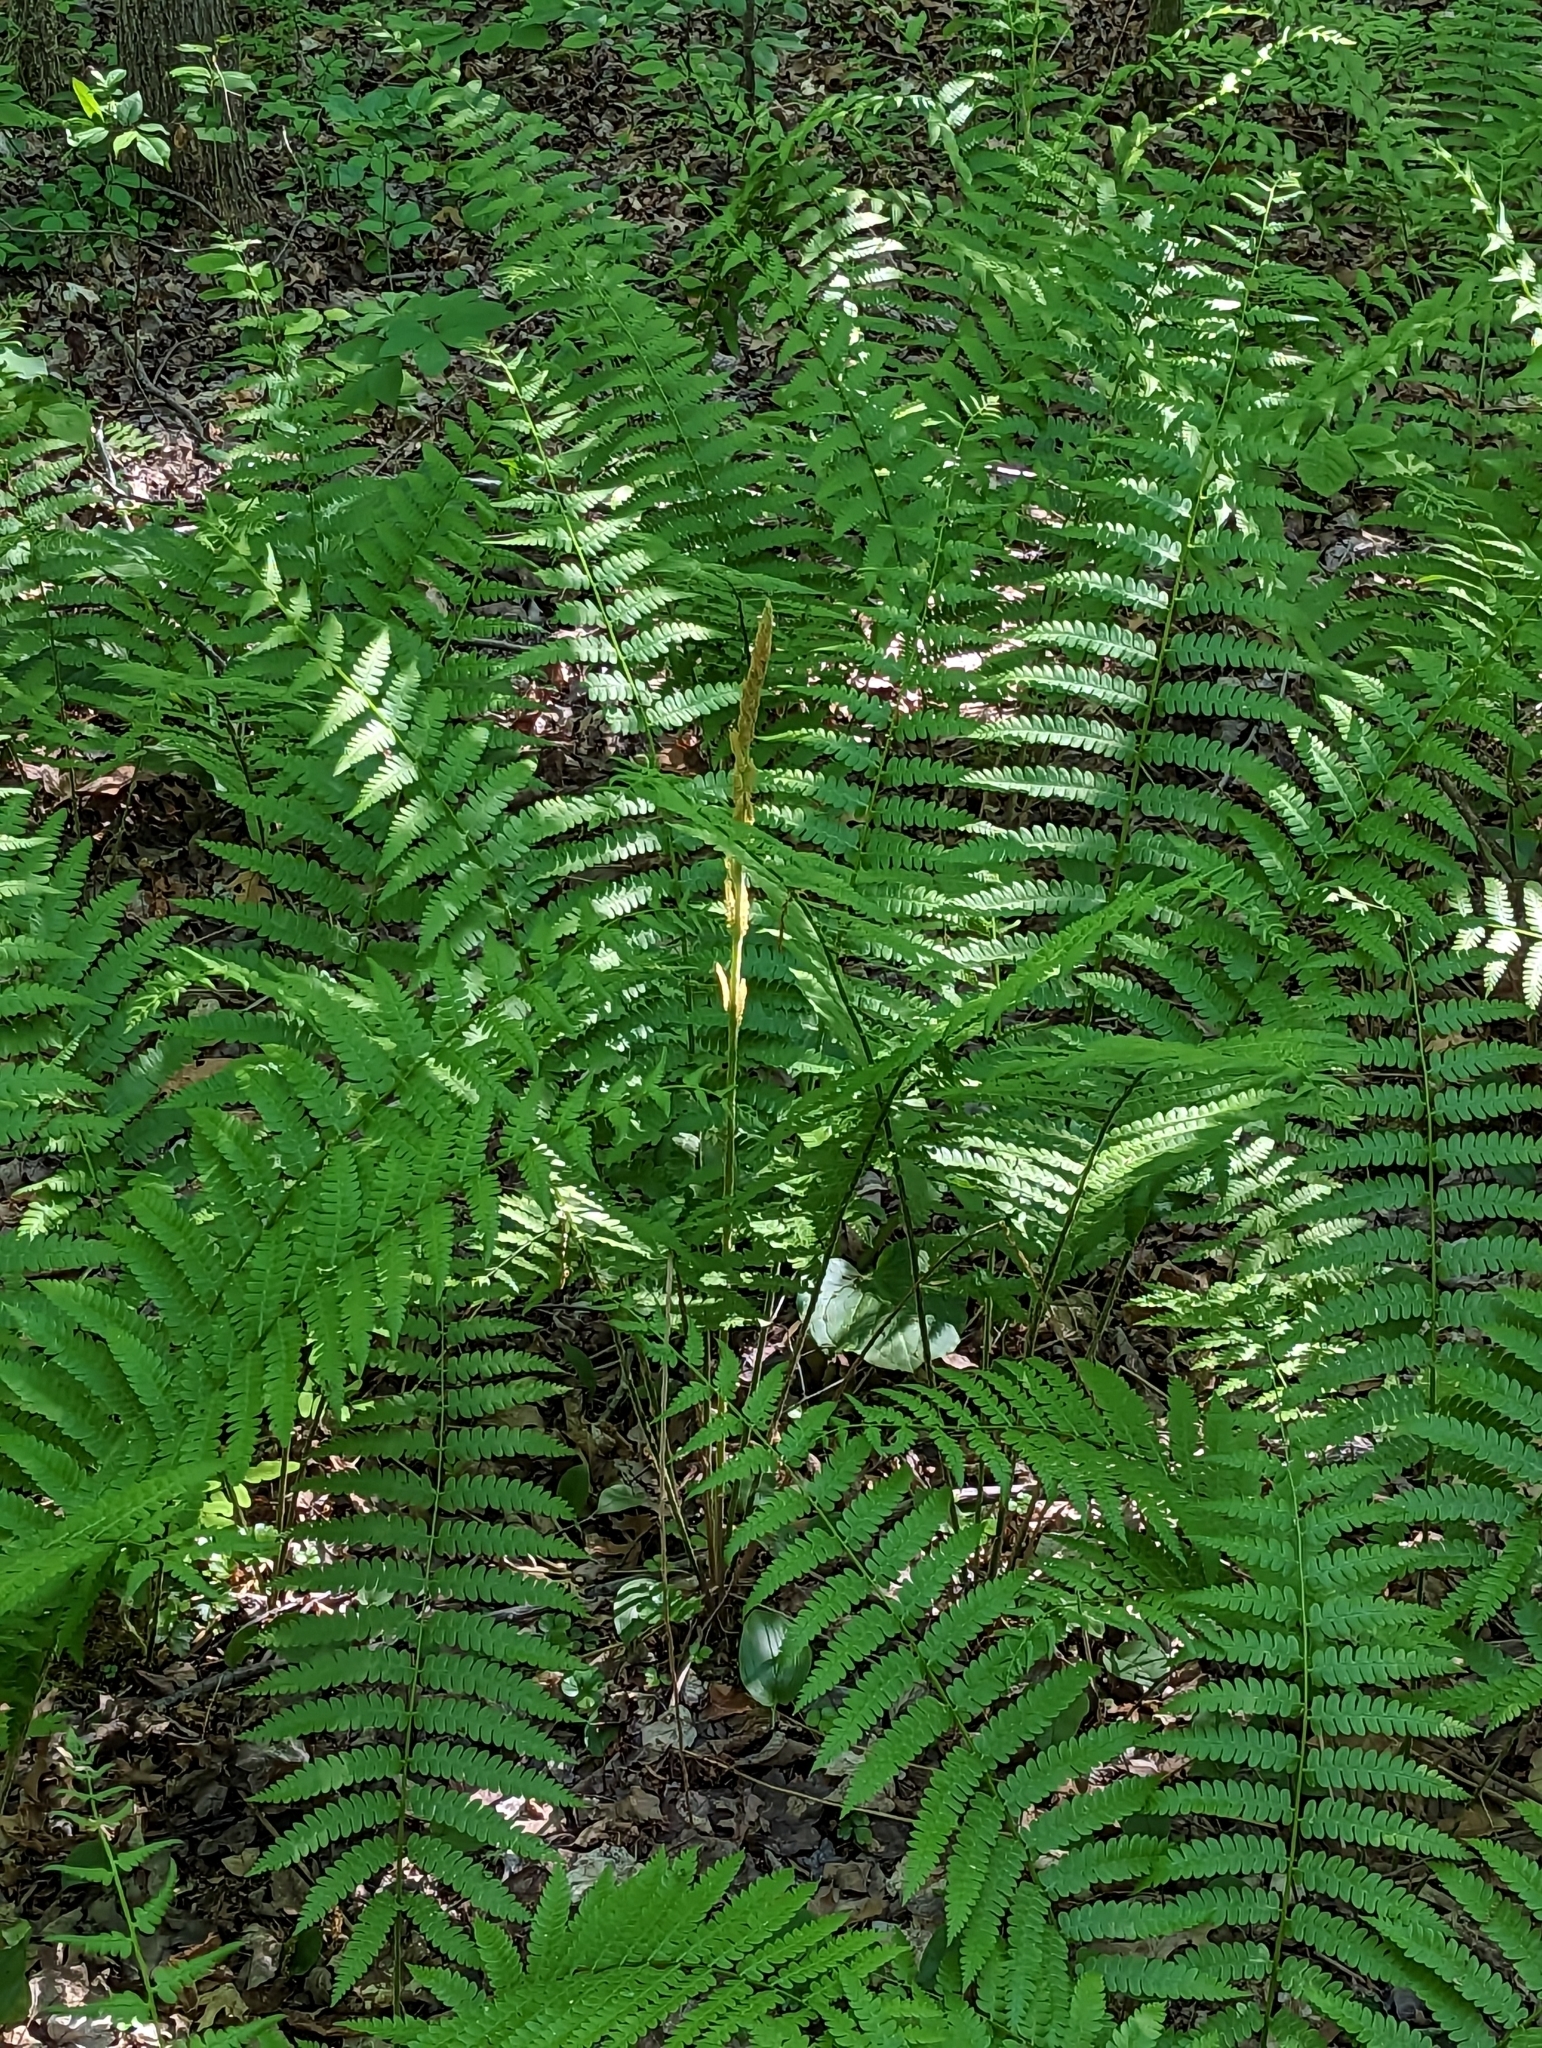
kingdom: Plantae
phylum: Tracheophyta
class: Polypodiopsida
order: Osmundales
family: Osmundaceae
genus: Osmundastrum
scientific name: Osmundastrum cinnamomeum
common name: Cinnamon fern
